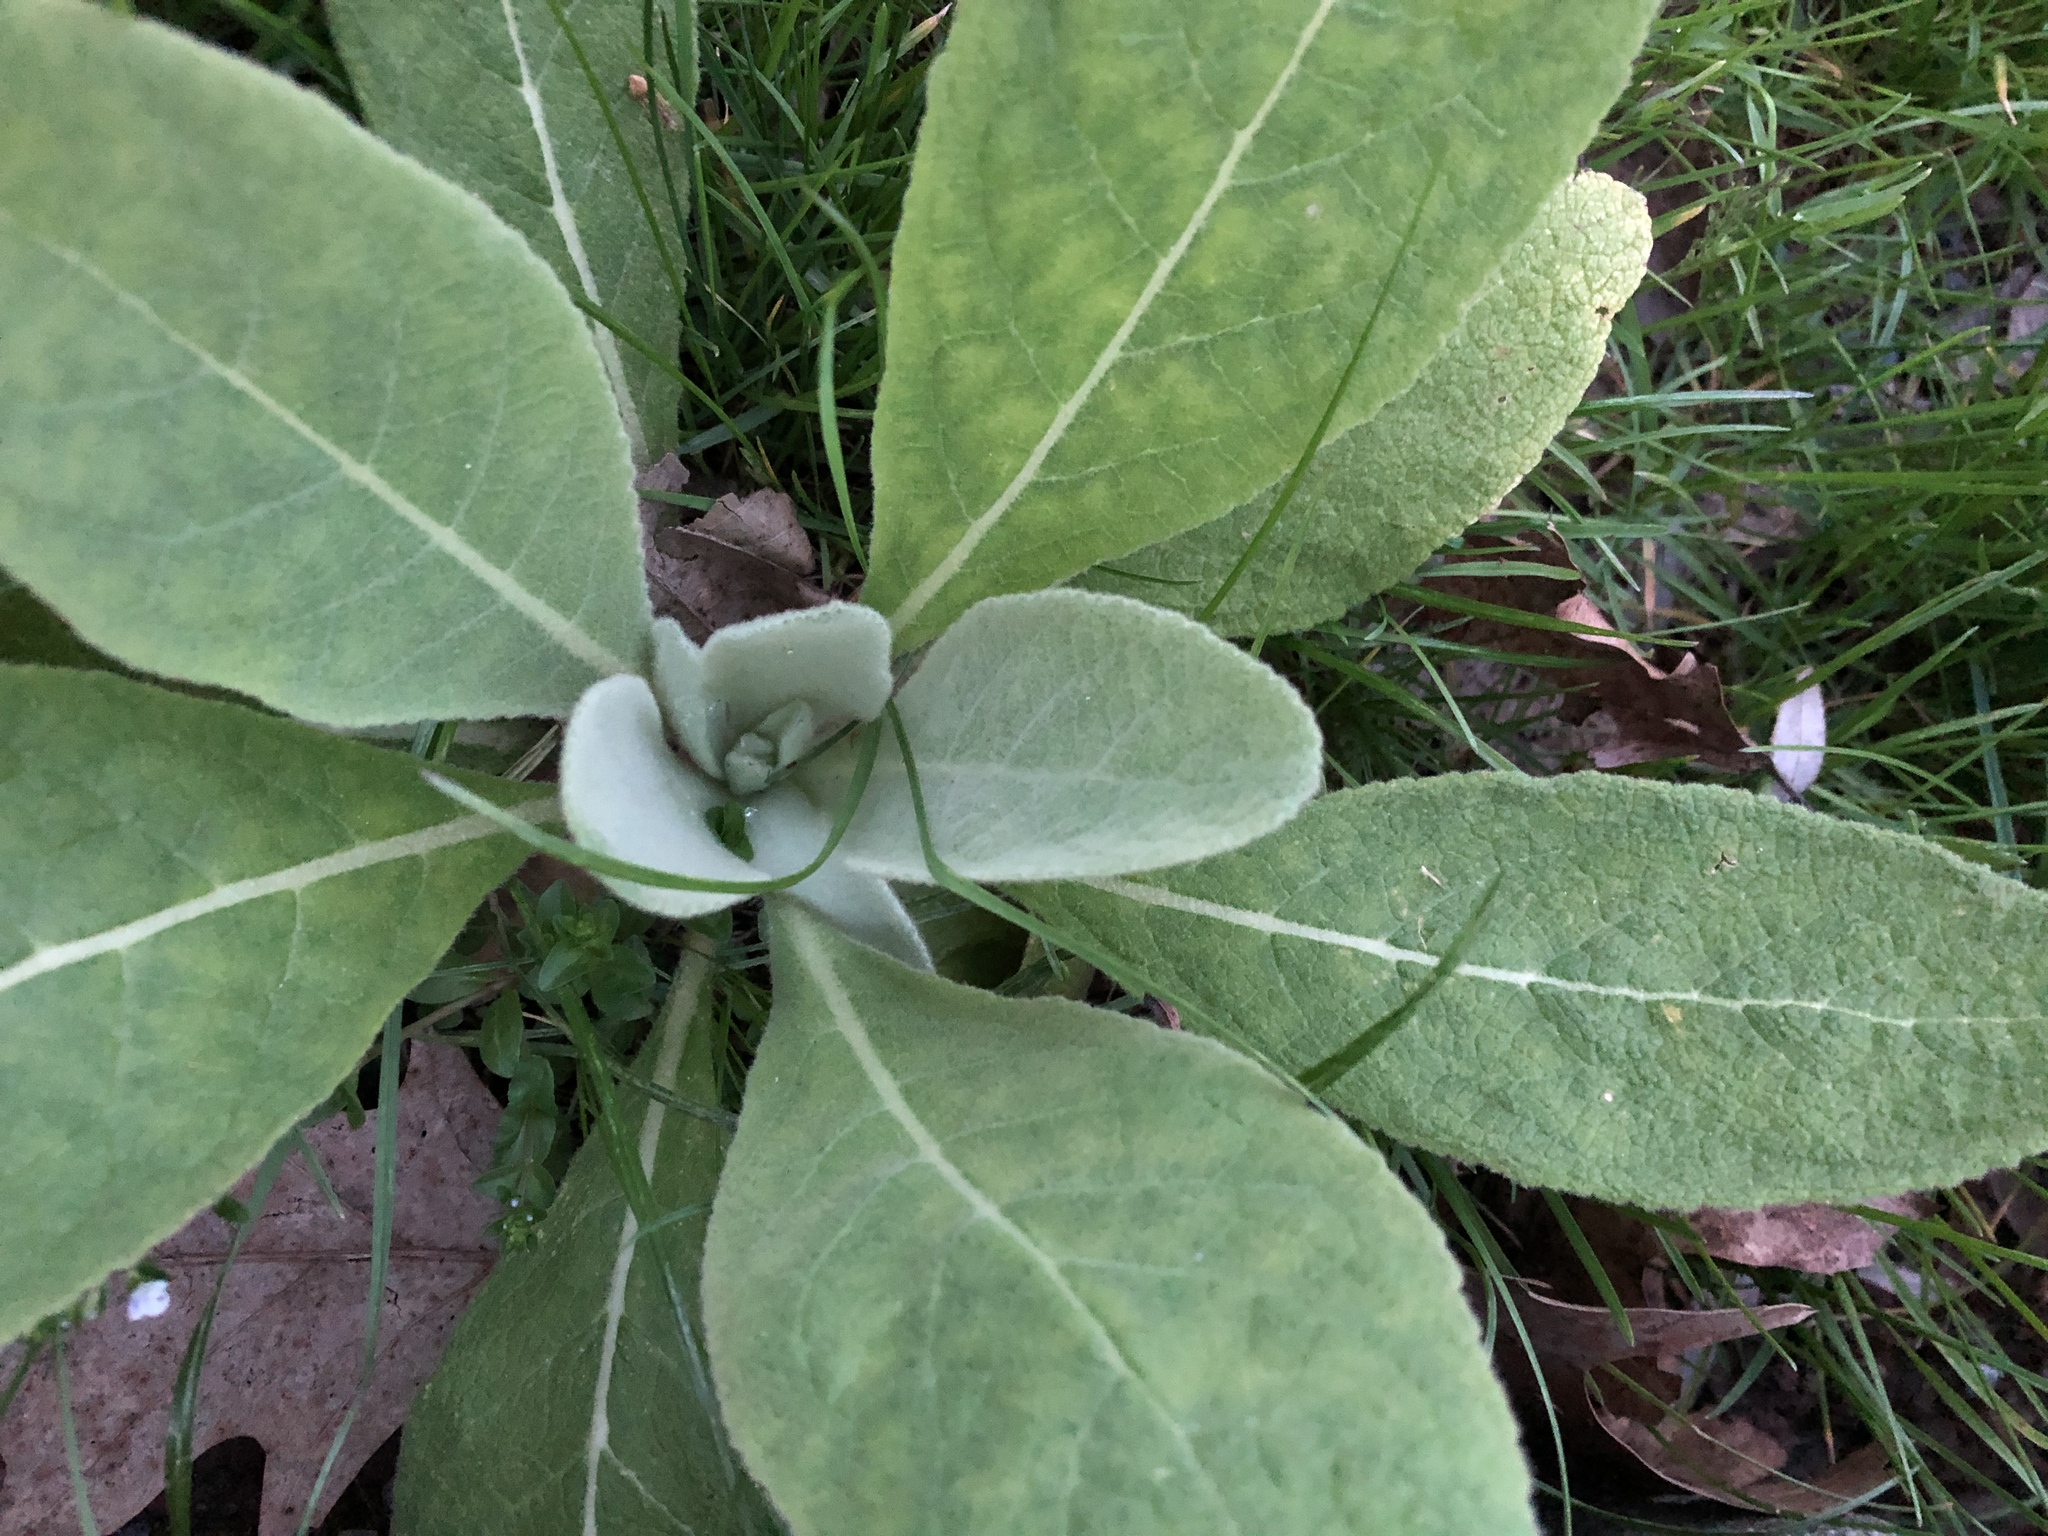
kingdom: Plantae
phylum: Tracheophyta
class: Magnoliopsida
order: Lamiales
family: Scrophulariaceae
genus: Verbascum
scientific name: Verbascum thapsus
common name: Common mullein
